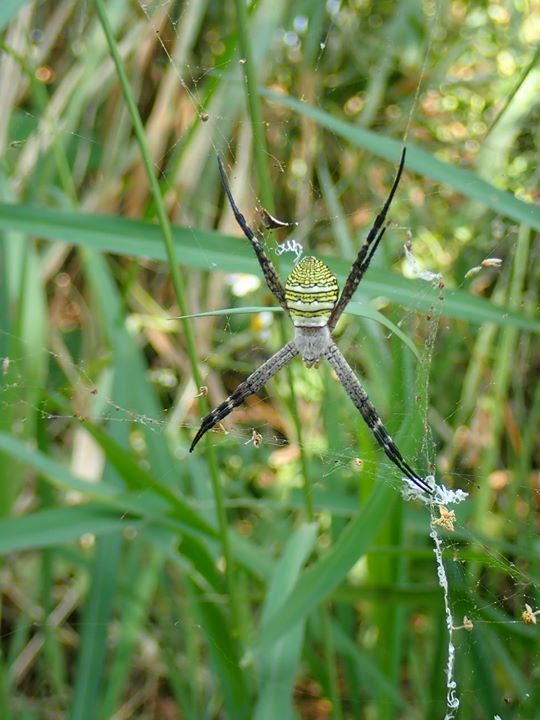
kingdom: Animalia
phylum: Arthropoda
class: Arachnida
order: Araneae
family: Araneidae
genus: Argiope
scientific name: Argiope aemula
